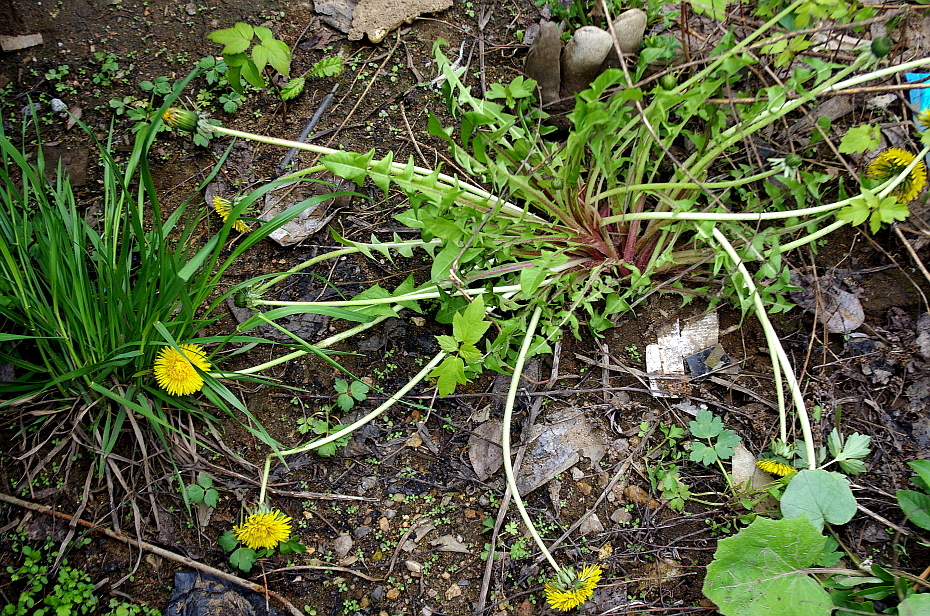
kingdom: Plantae
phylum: Tracheophyta
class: Magnoliopsida
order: Asterales
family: Asteraceae
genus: Taraxacum
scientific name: Taraxacum officinale
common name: Common dandelion
